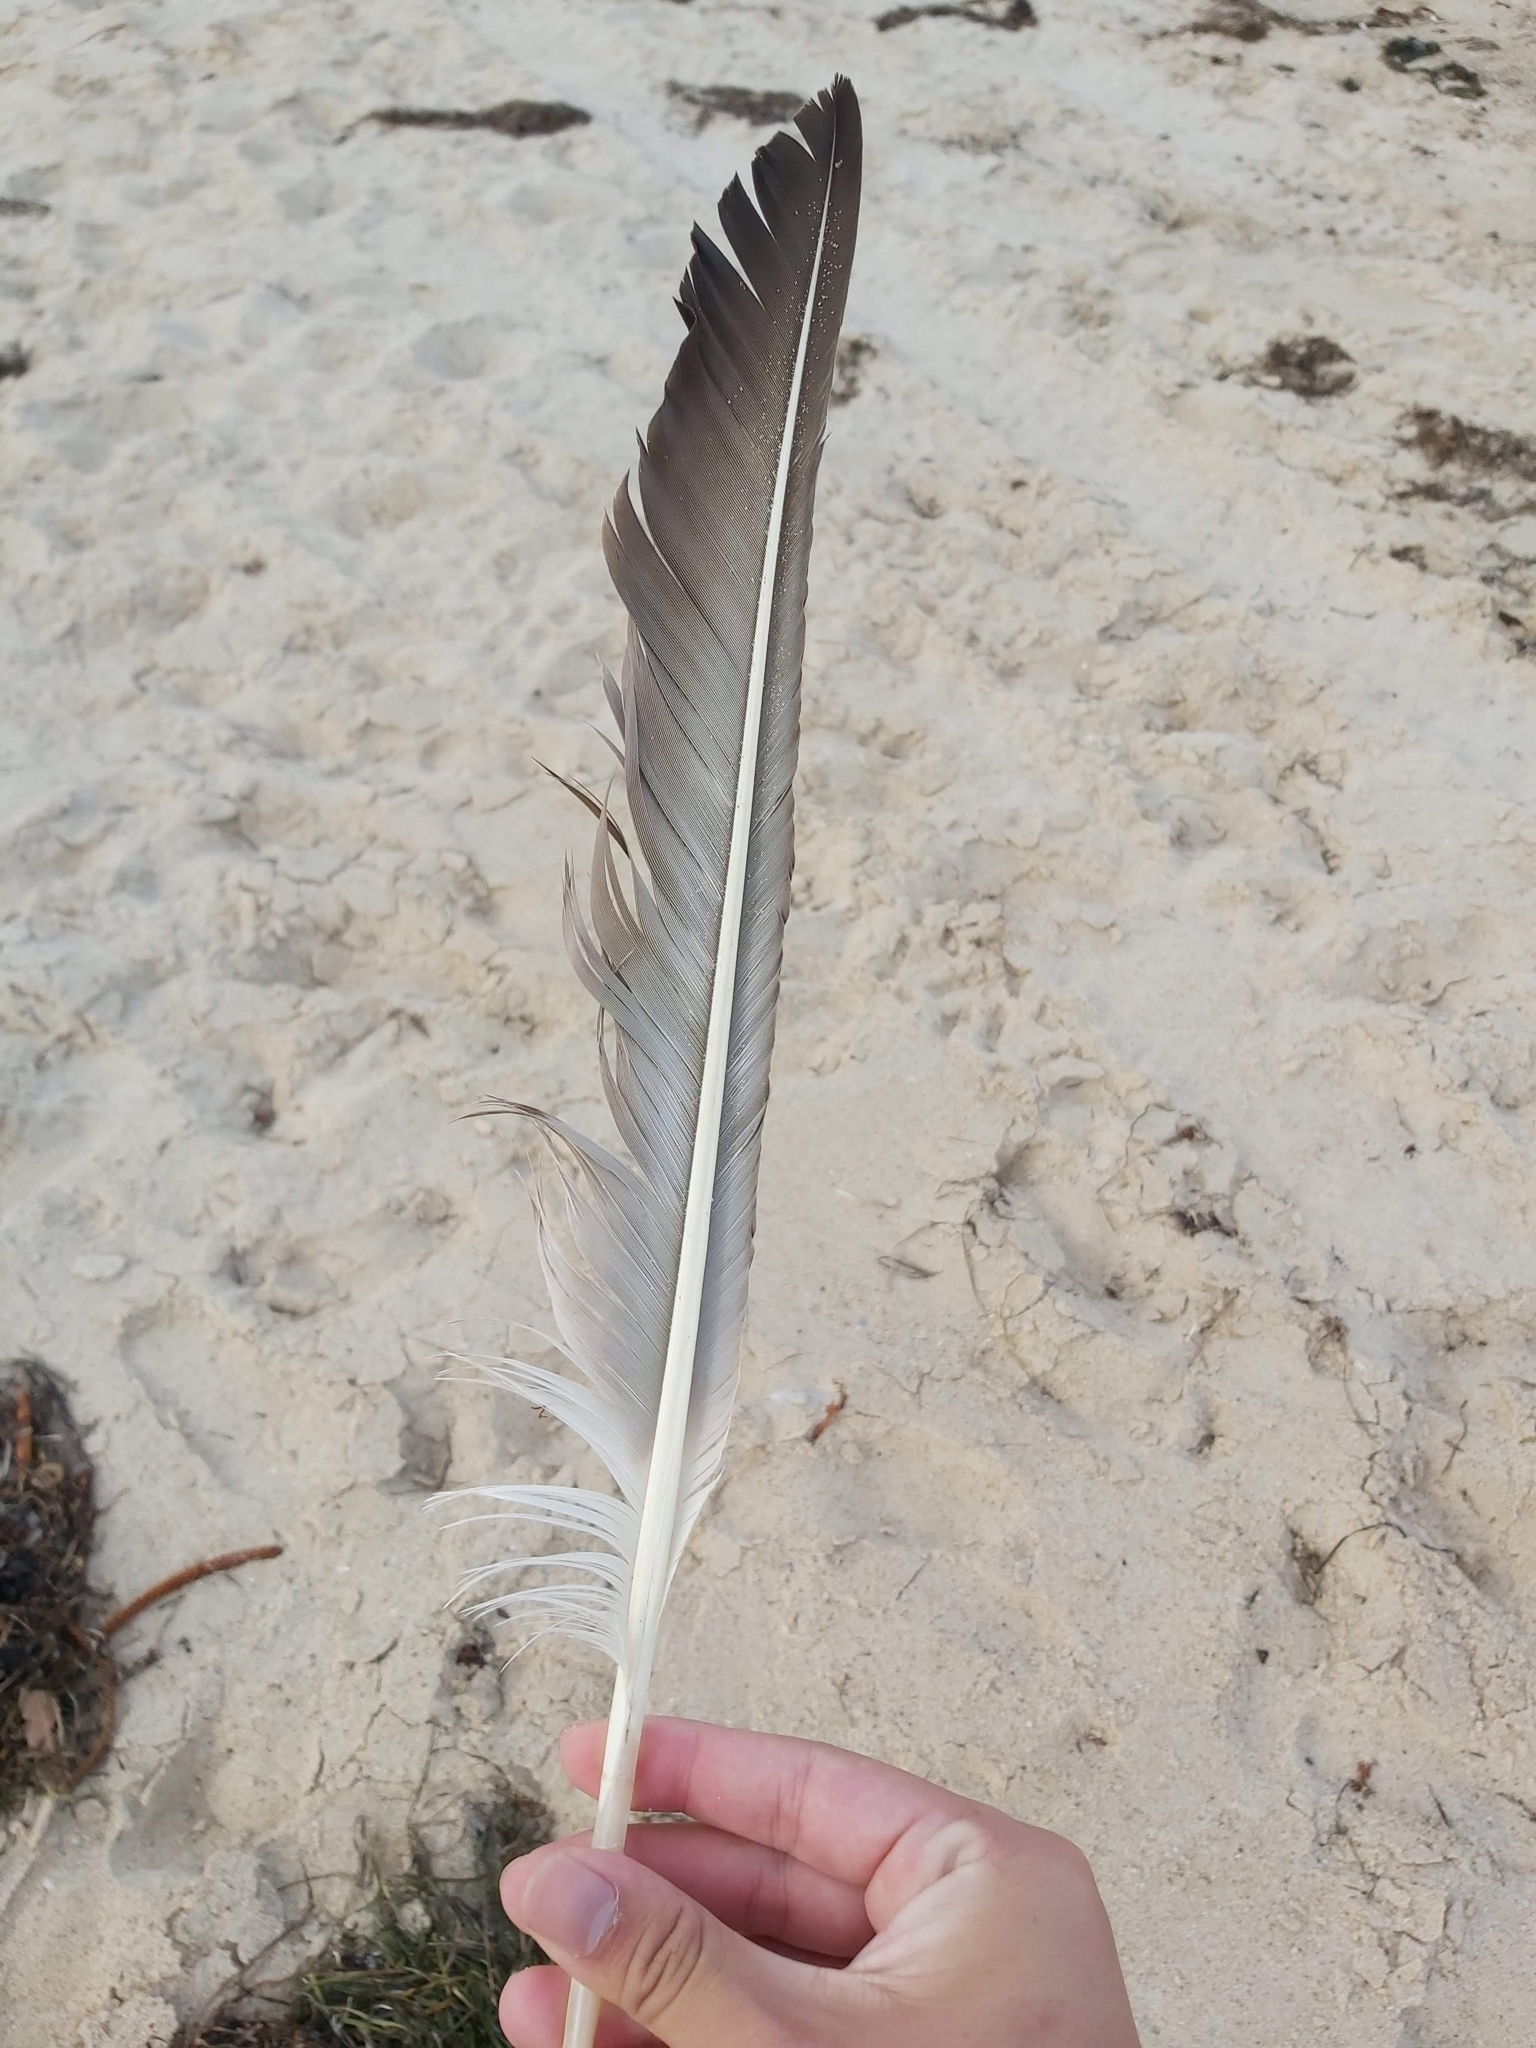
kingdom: Animalia
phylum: Chordata
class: Aves
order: Pelecaniformes
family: Pelecanidae
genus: Pelecanus
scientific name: Pelecanus conspicillatus
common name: Australian pelican
